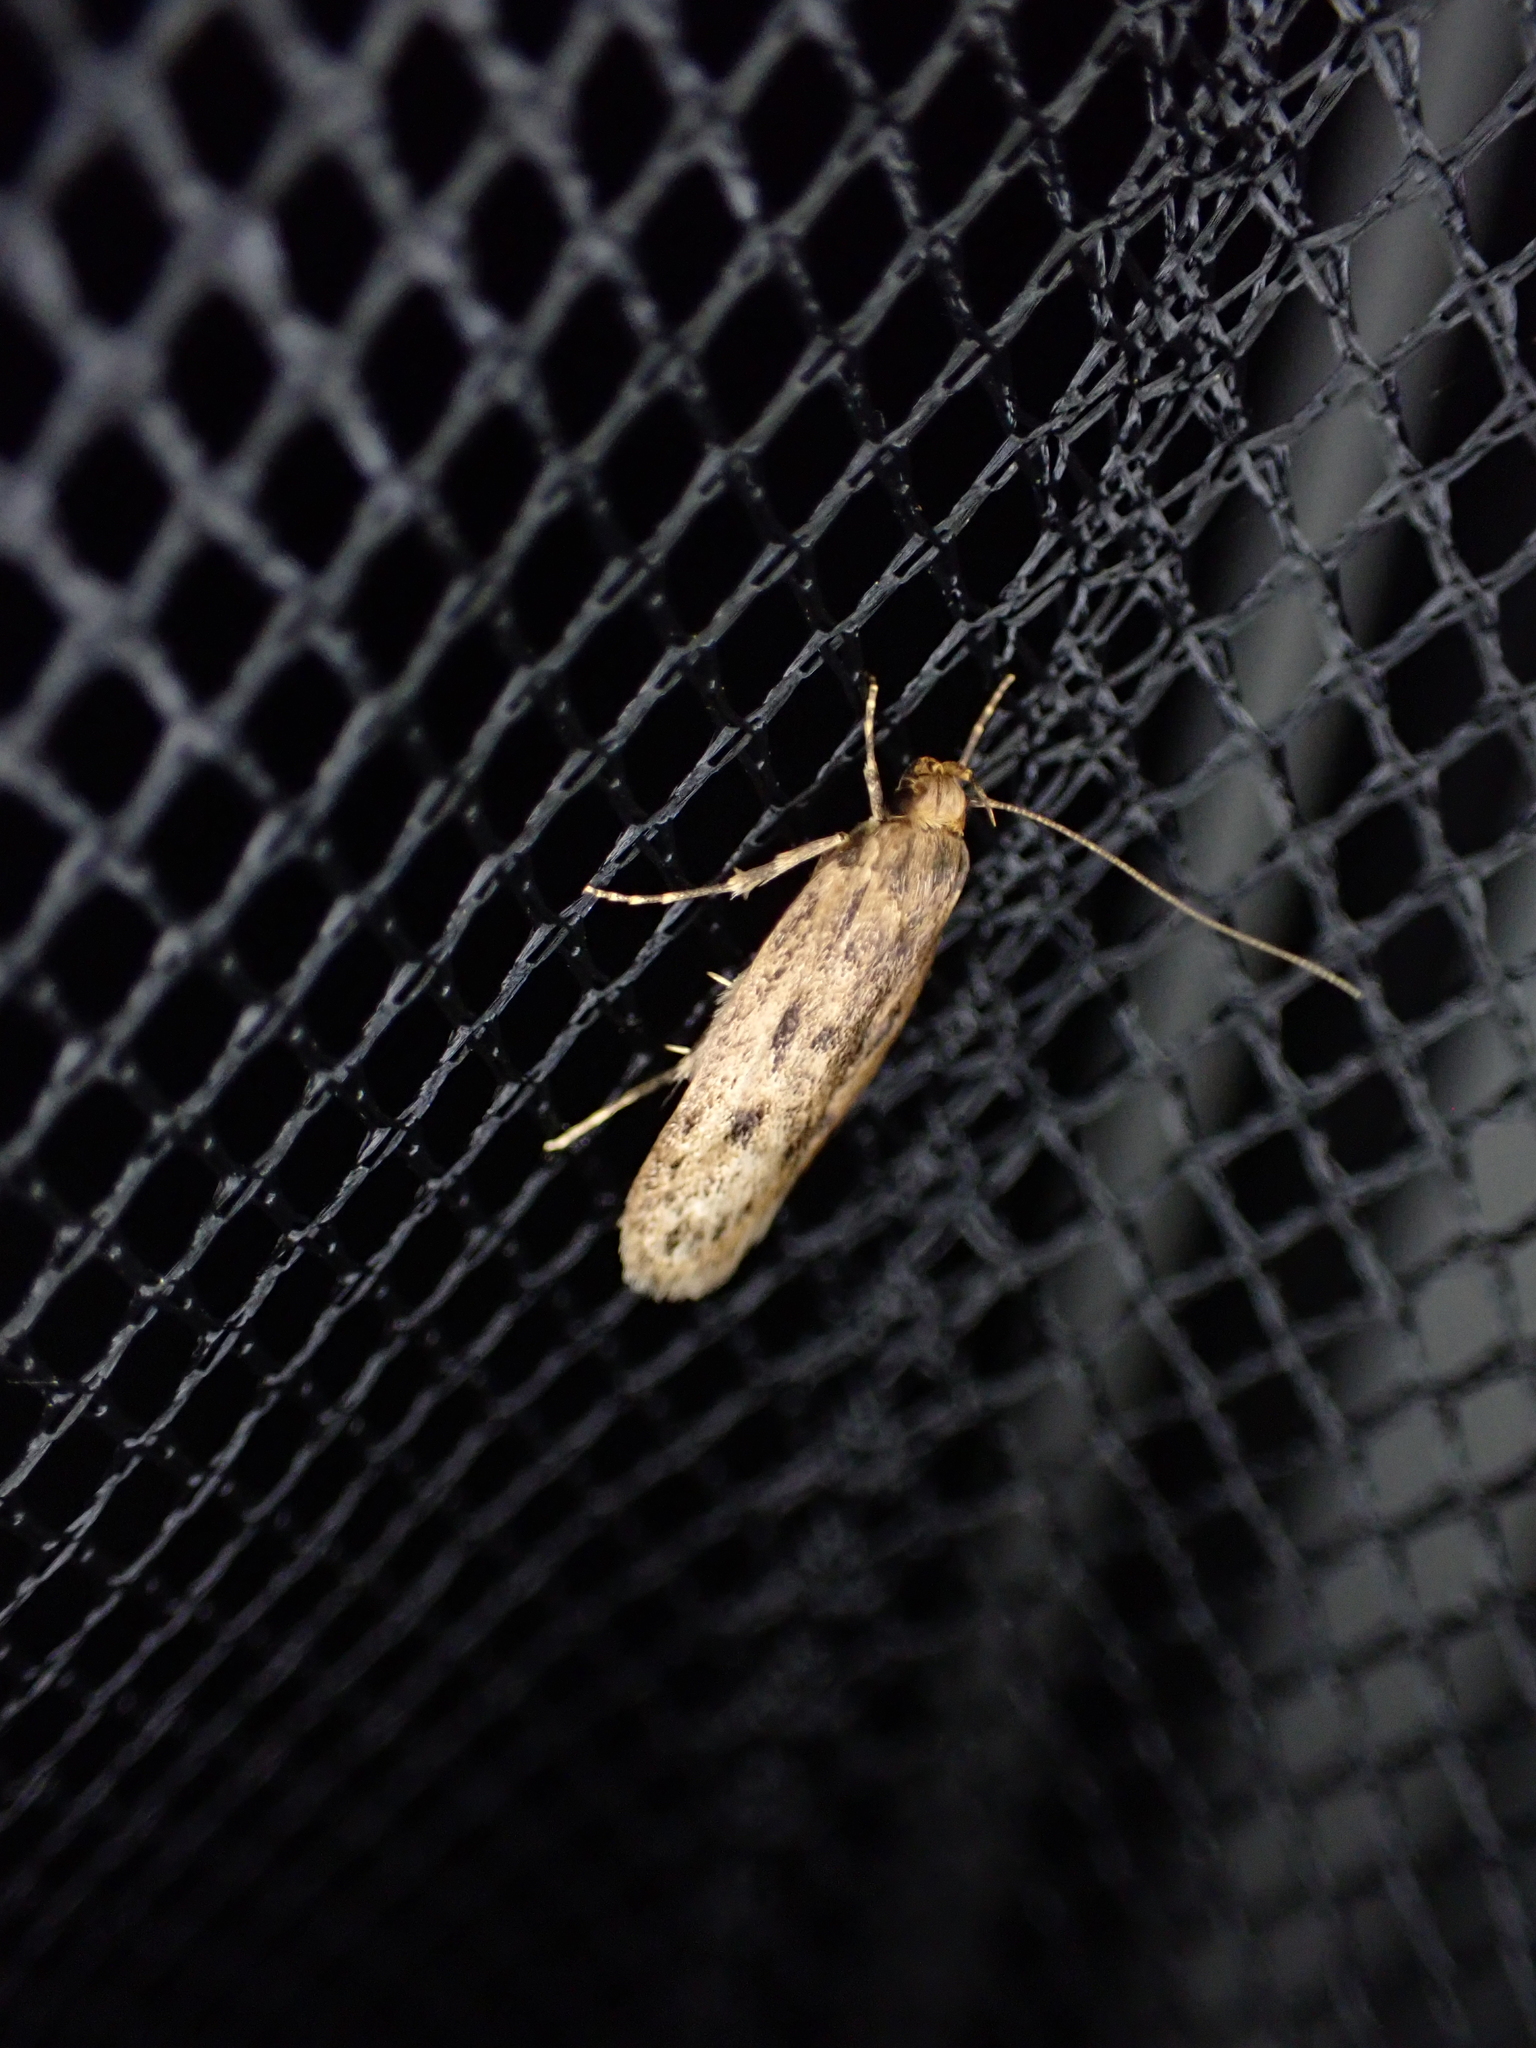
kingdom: Animalia
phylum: Arthropoda
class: Insecta
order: Lepidoptera
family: Oecophoridae
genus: Hofmannophila
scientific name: Hofmannophila pseudospretella
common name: Brown house moth
